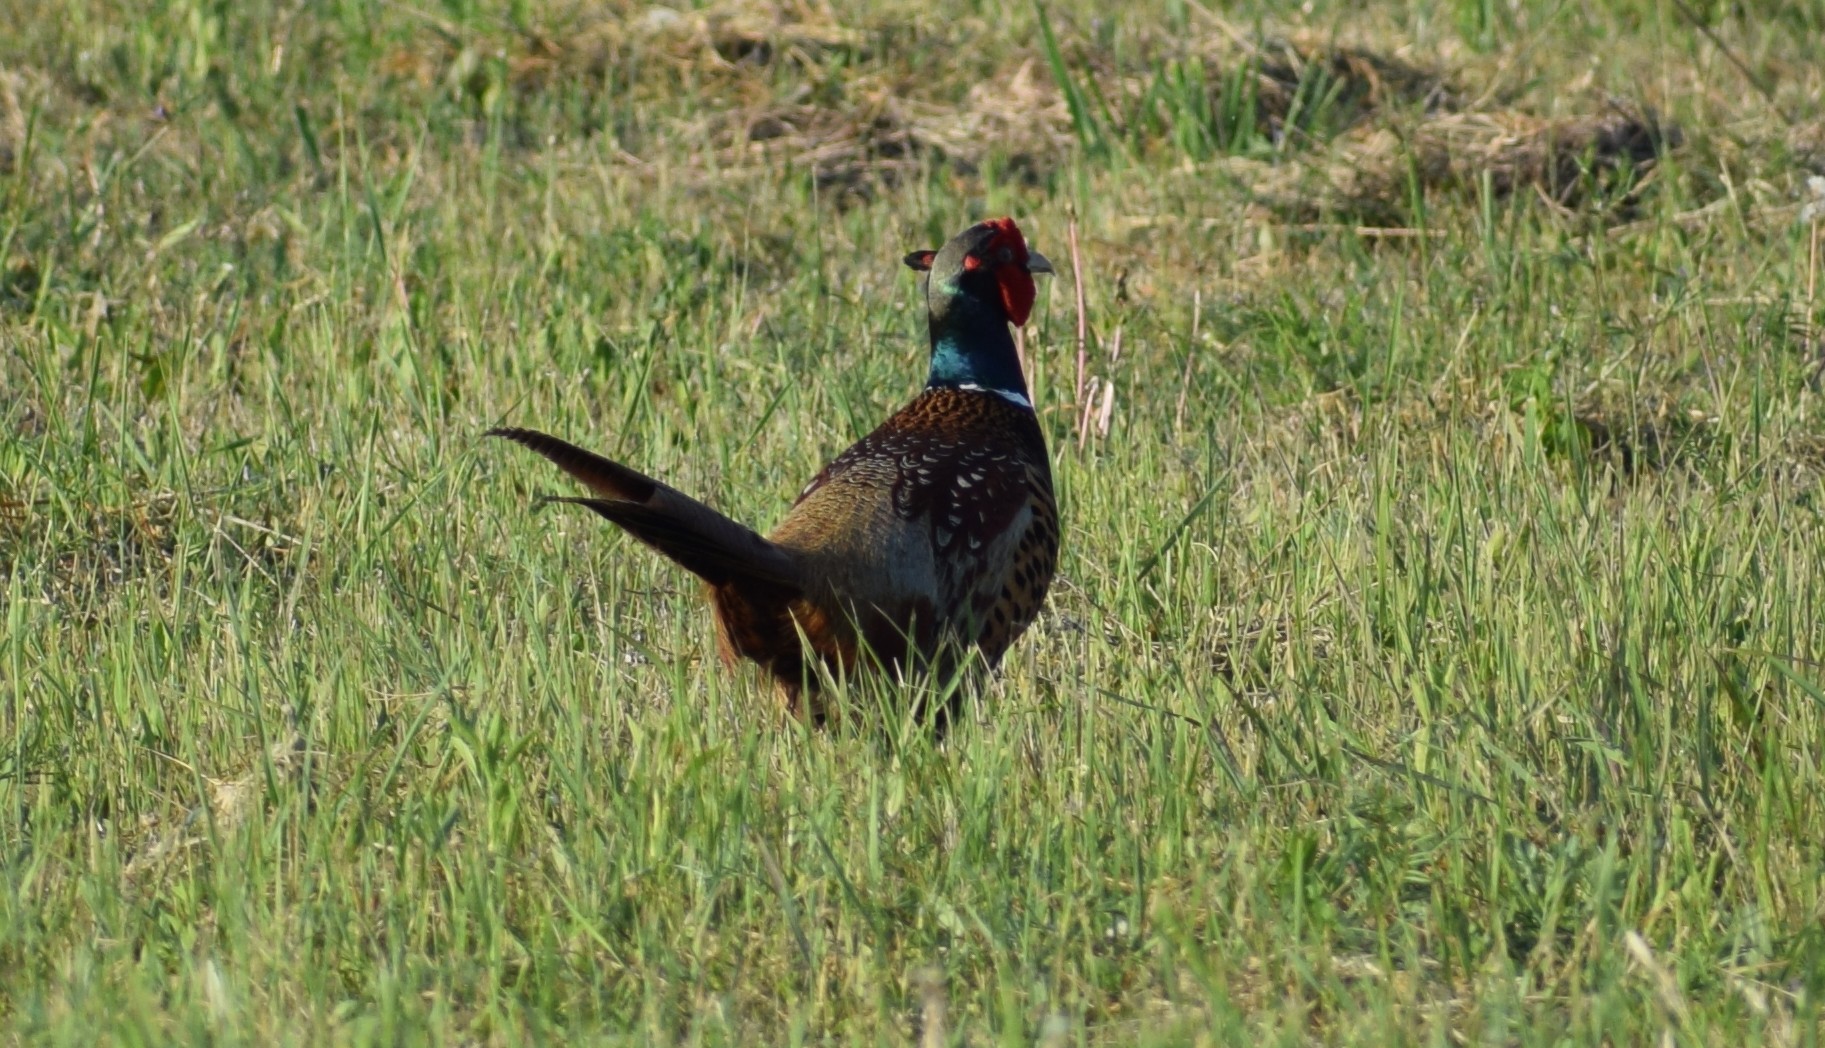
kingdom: Animalia
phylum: Chordata
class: Aves
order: Galliformes
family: Phasianidae
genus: Phasianus
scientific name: Phasianus colchicus
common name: Common pheasant
